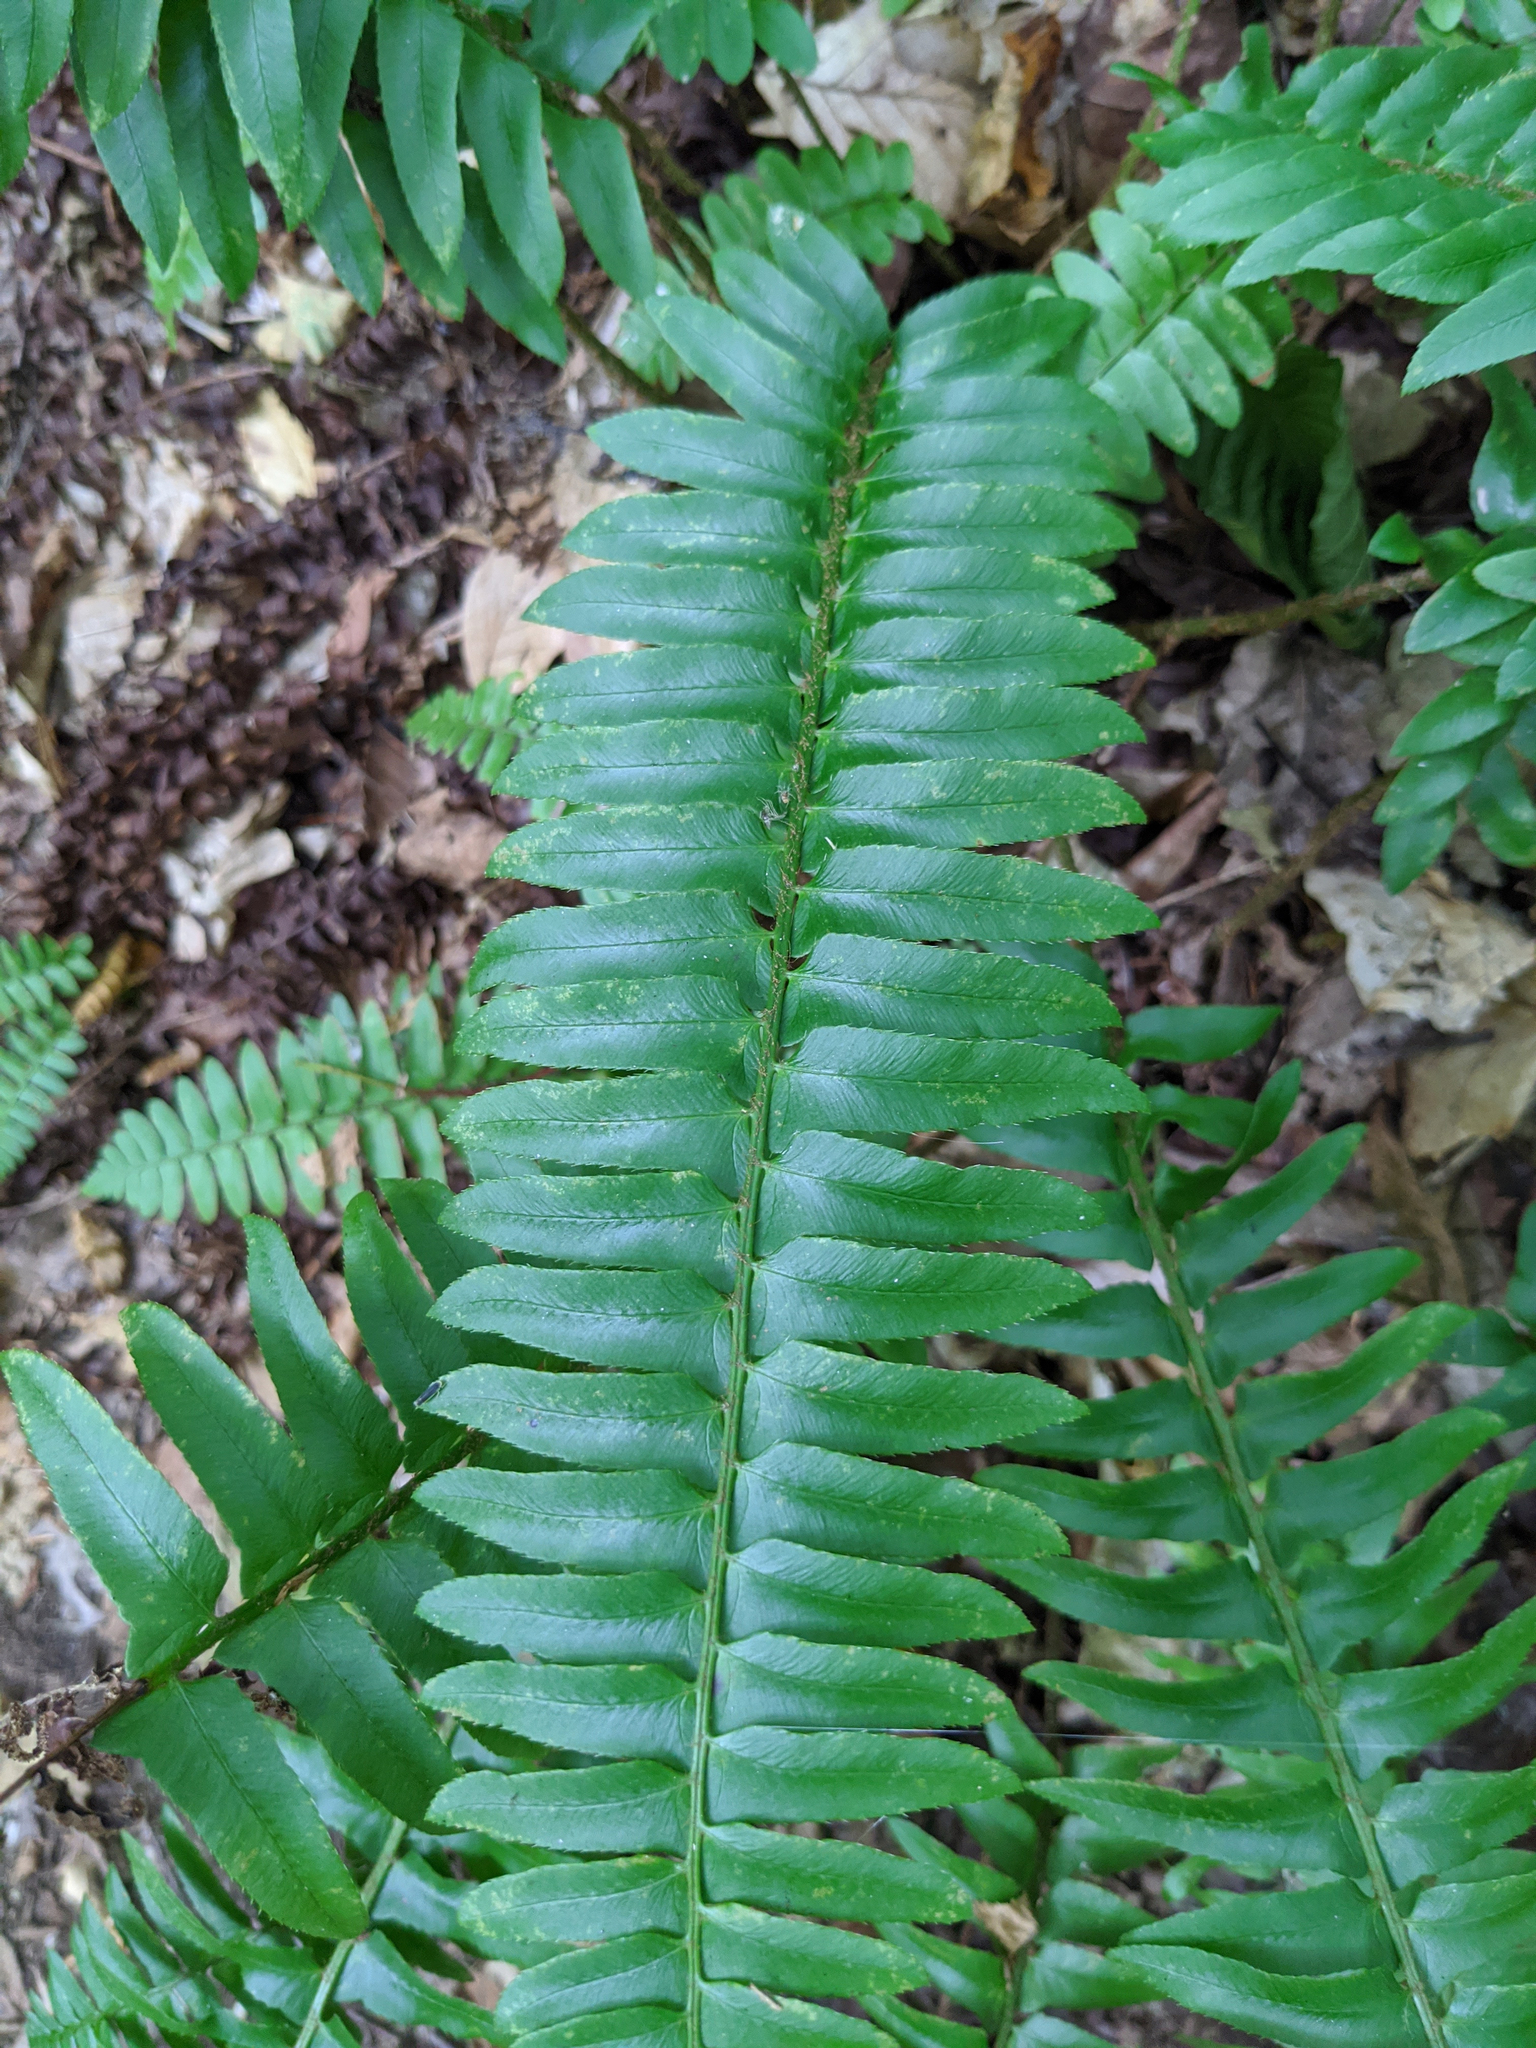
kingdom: Plantae
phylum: Tracheophyta
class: Polypodiopsida
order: Polypodiales
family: Dryopteridaceae
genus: Polystichum
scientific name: Polystichum acrostichoides
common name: Christmas fern
